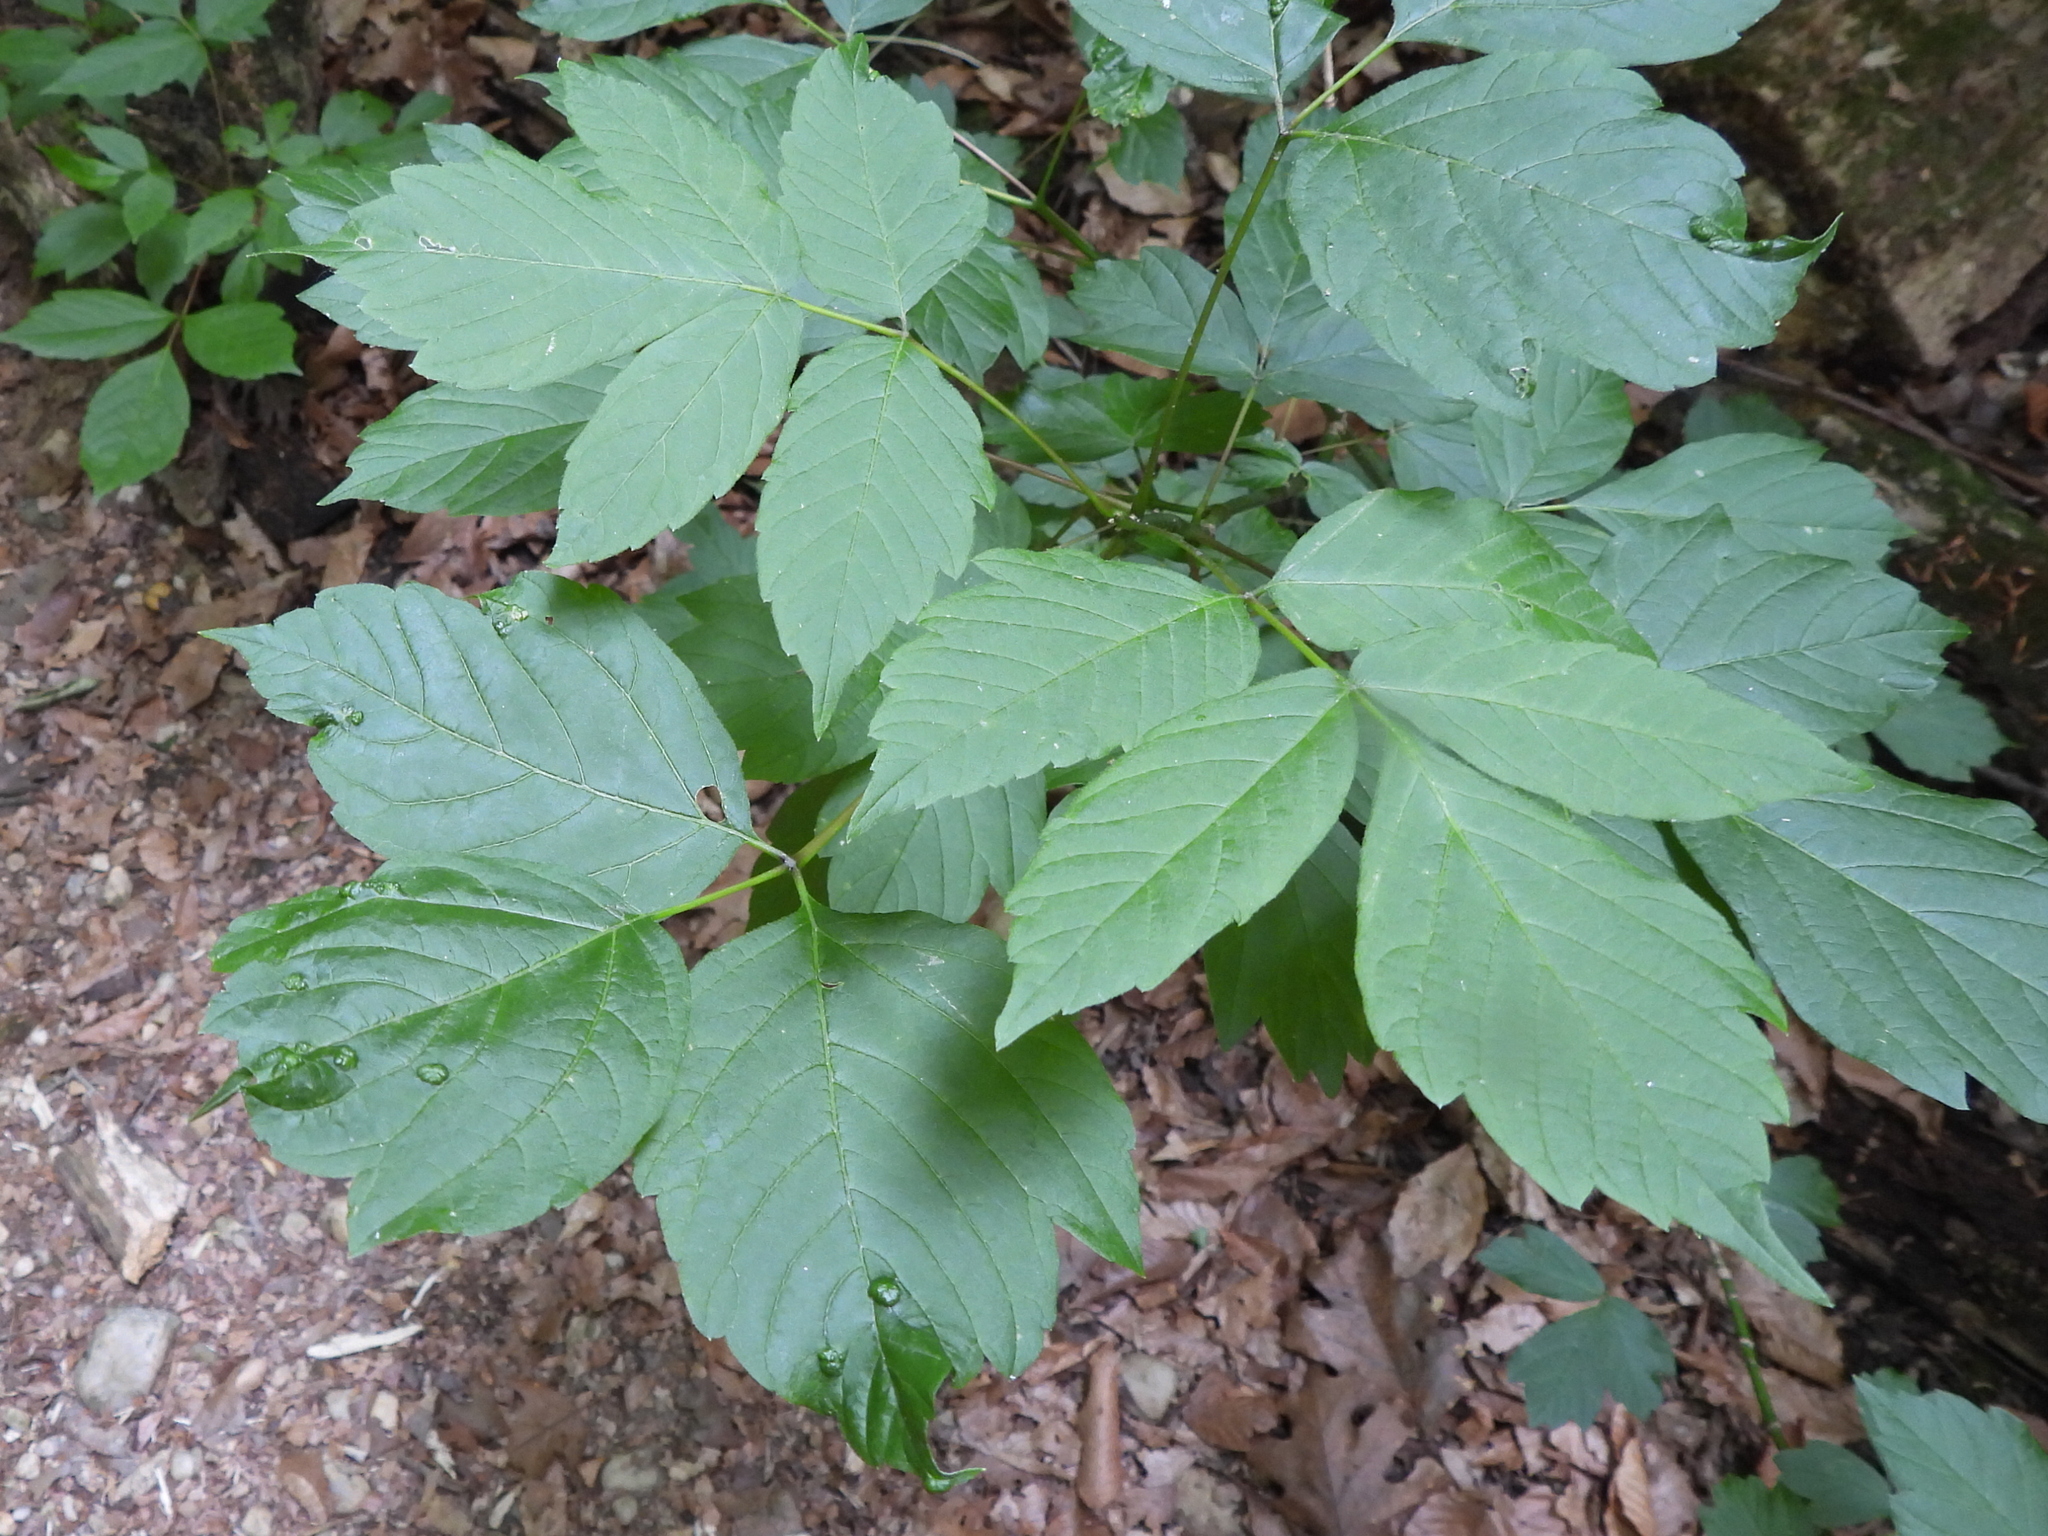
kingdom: Animalia
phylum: Arthropoda
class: Arachnida
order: Trombidiformes
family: Eriophyidae
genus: Aceria
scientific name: Aceria
